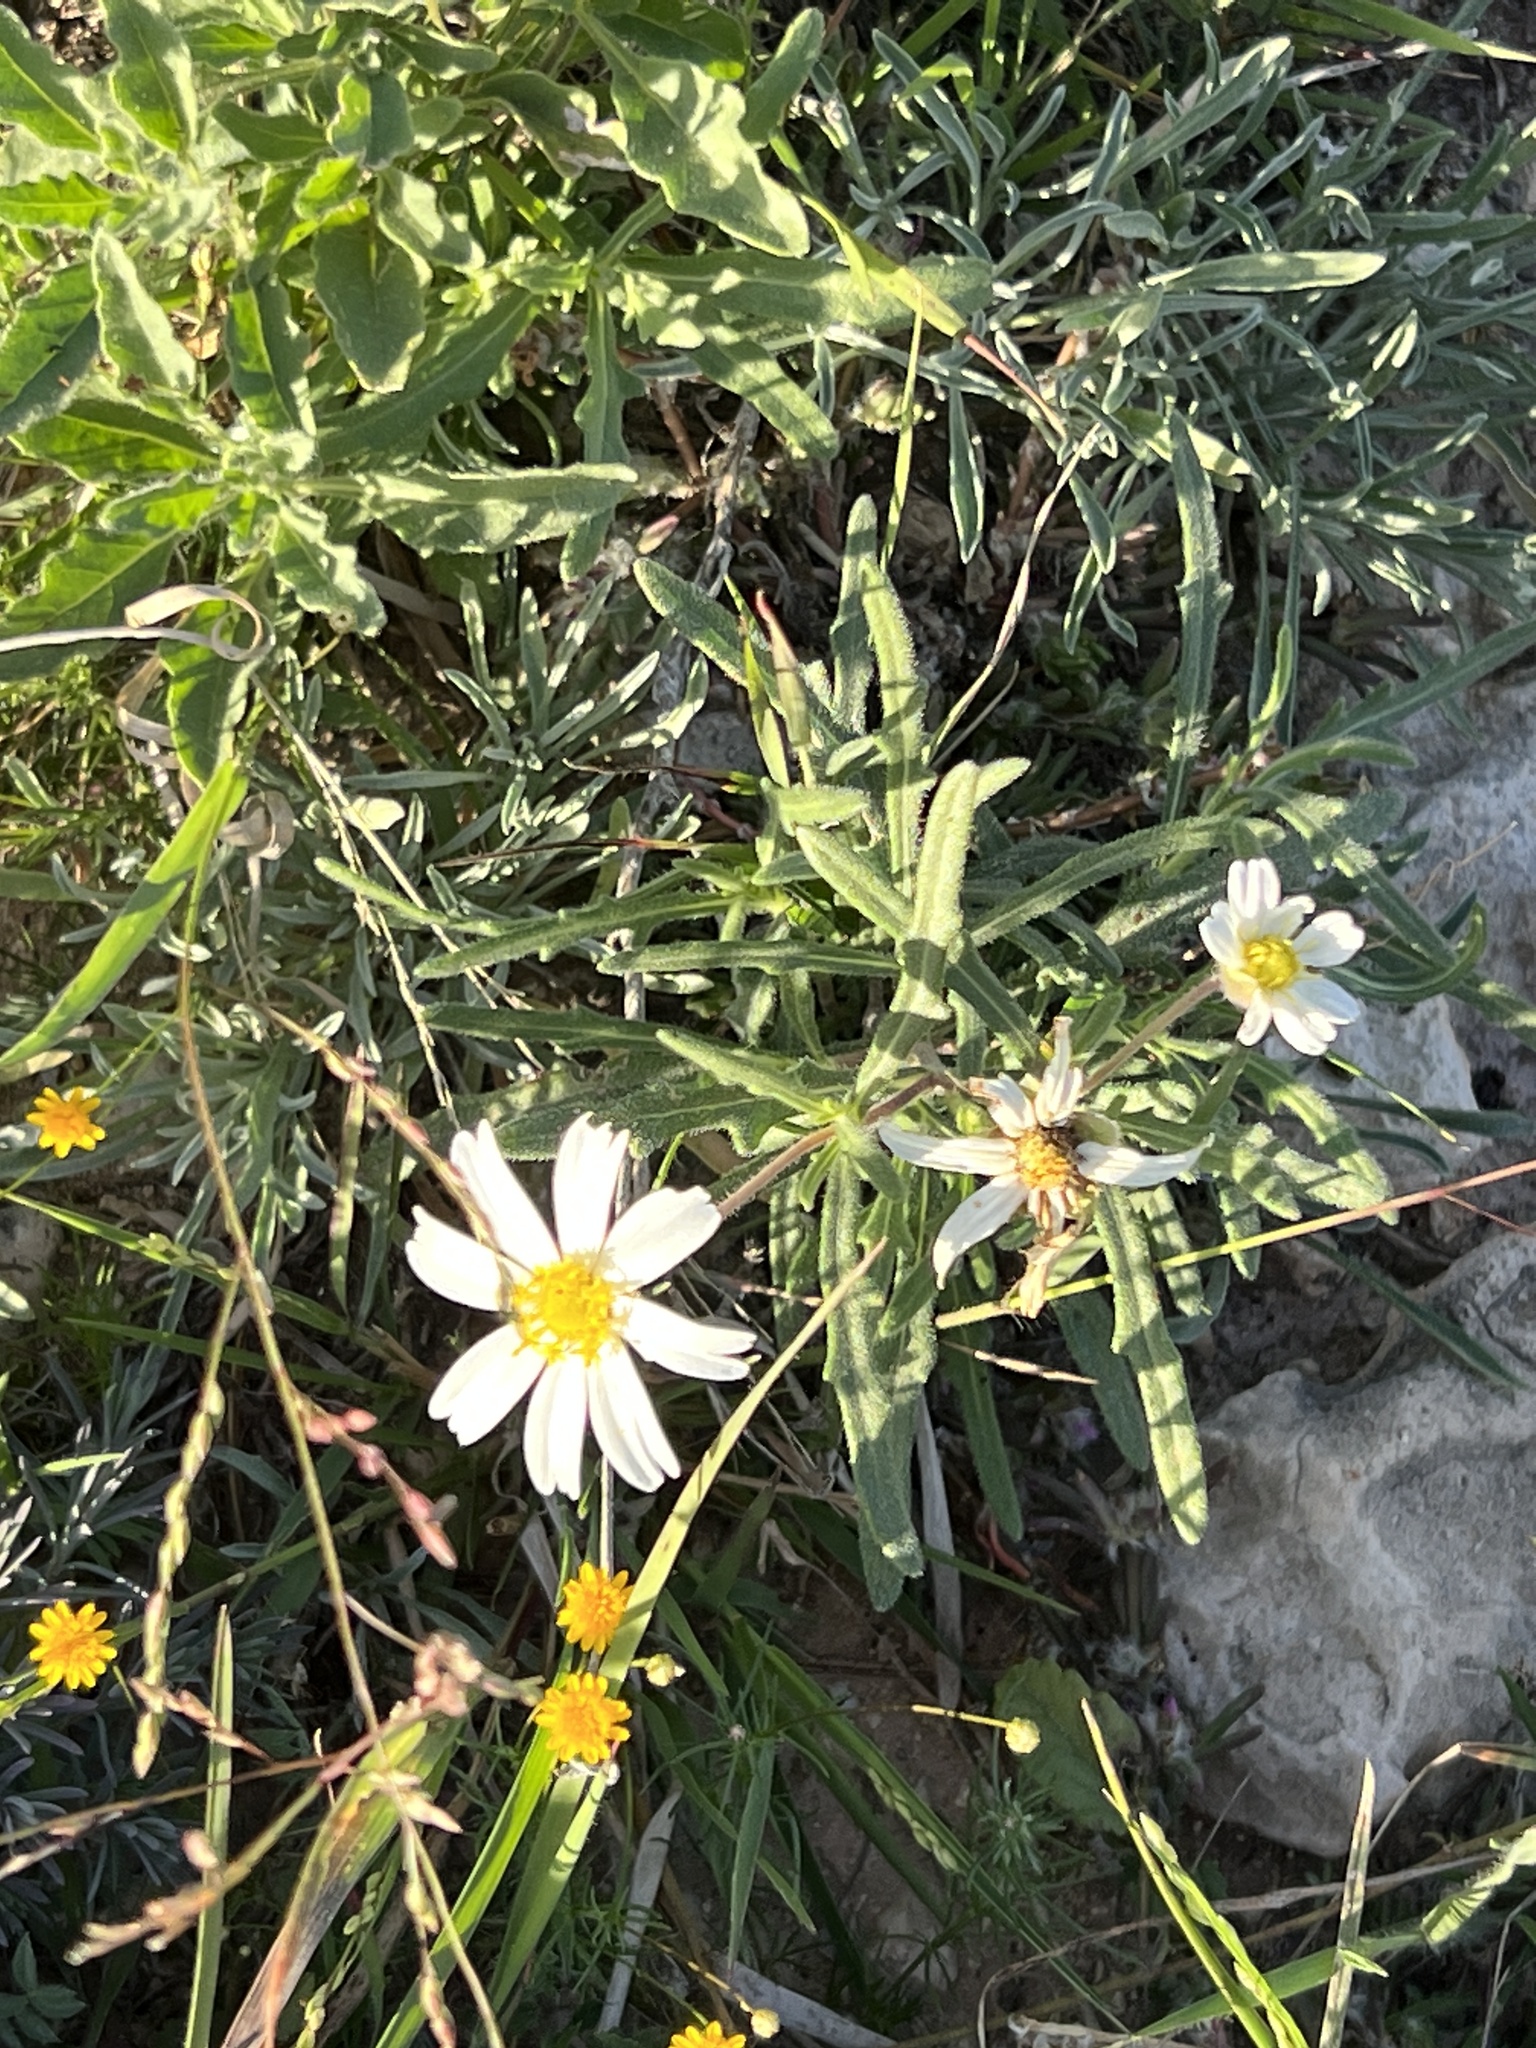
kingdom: Plantae
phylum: Tracheophyta
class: Magnoliopsida
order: Asterales
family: Asteraceae
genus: Melampodium
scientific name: Melampodium leucanthum
